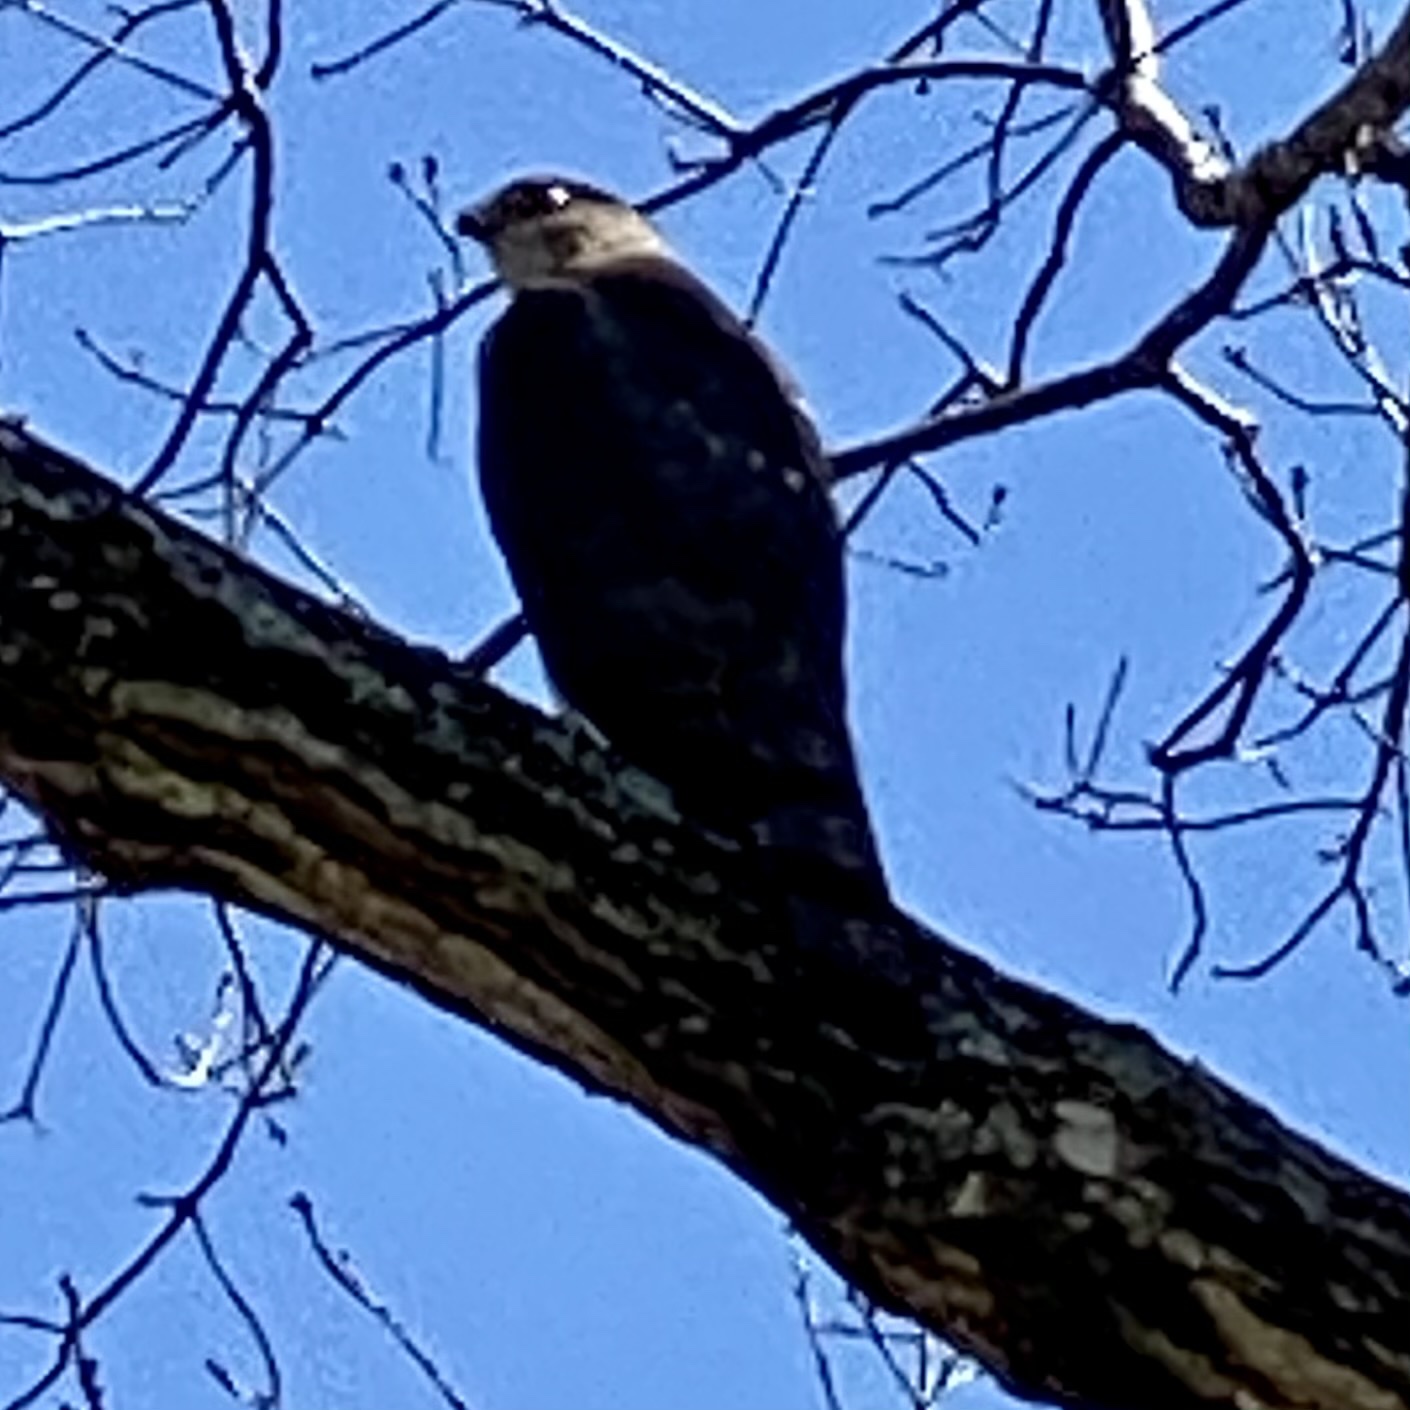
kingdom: Animalia
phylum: Chordata
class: Aves
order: Accipitriformes
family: Accipitridae
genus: Accipiter
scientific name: Accipiter cooperii
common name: Cooper's hawk
